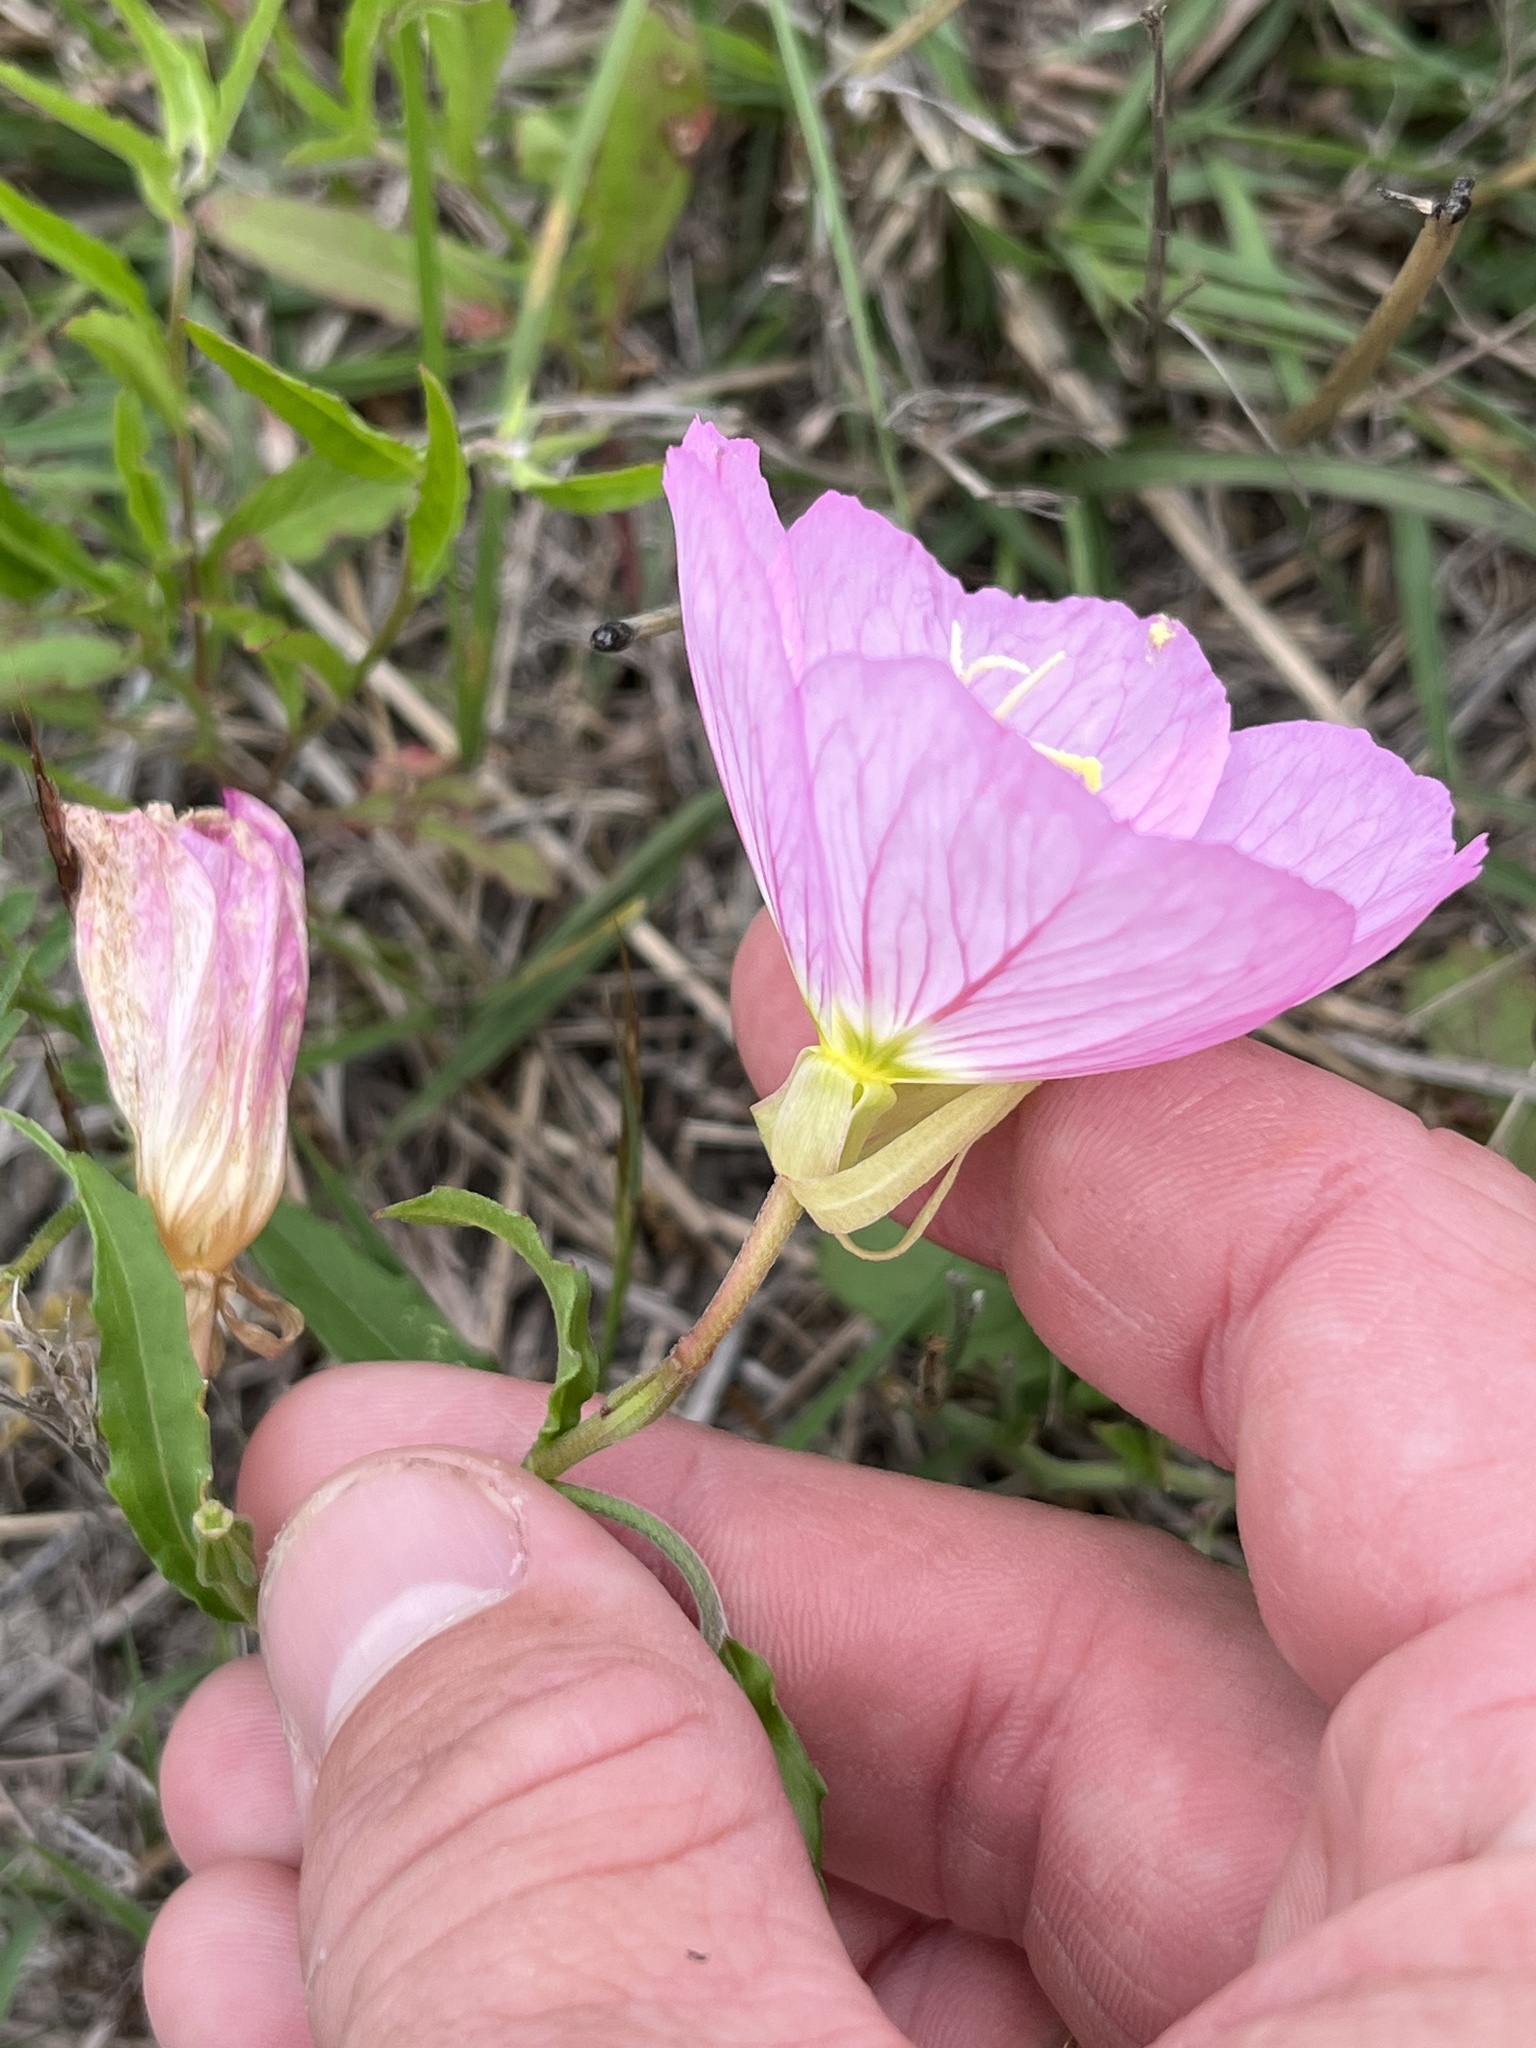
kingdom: Plantae
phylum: Tracheophyta
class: Magnoliopsida
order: Myrtales
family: Onagraceae
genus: Oenothera
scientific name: Oenothera speciosa
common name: White evening-primrose
